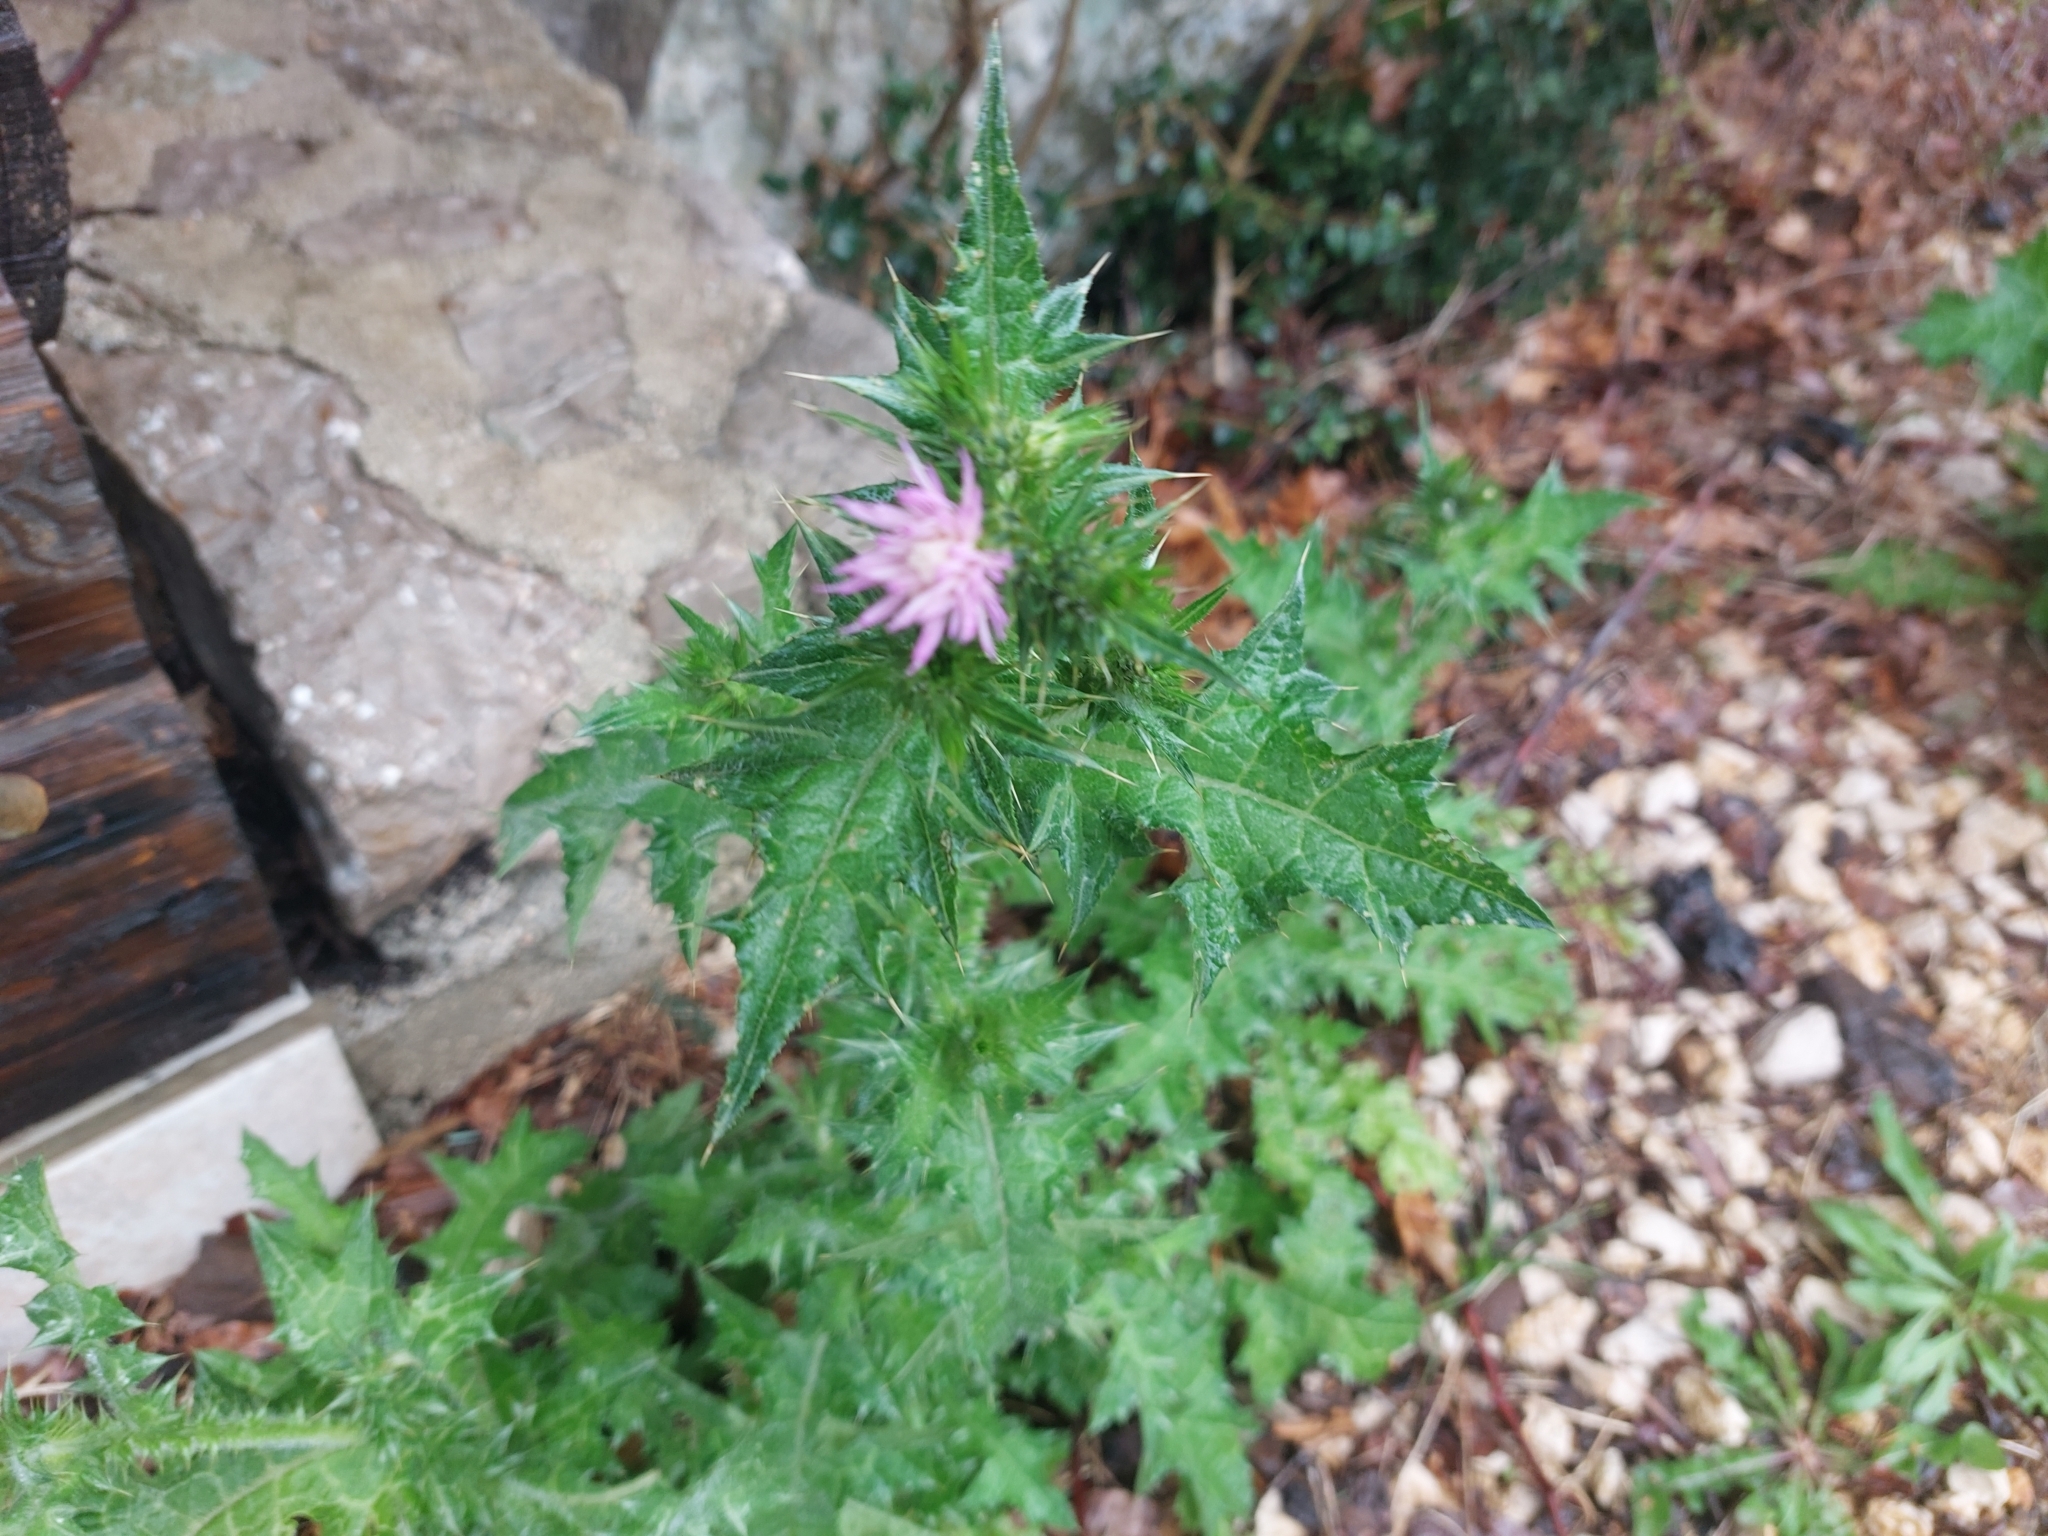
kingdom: Plantae
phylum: Tracheophyta
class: Magnoliopsida
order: Asterales
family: Asteraceae
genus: Carduus
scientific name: Carduus pycnocephalus
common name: Plymouth thistle
